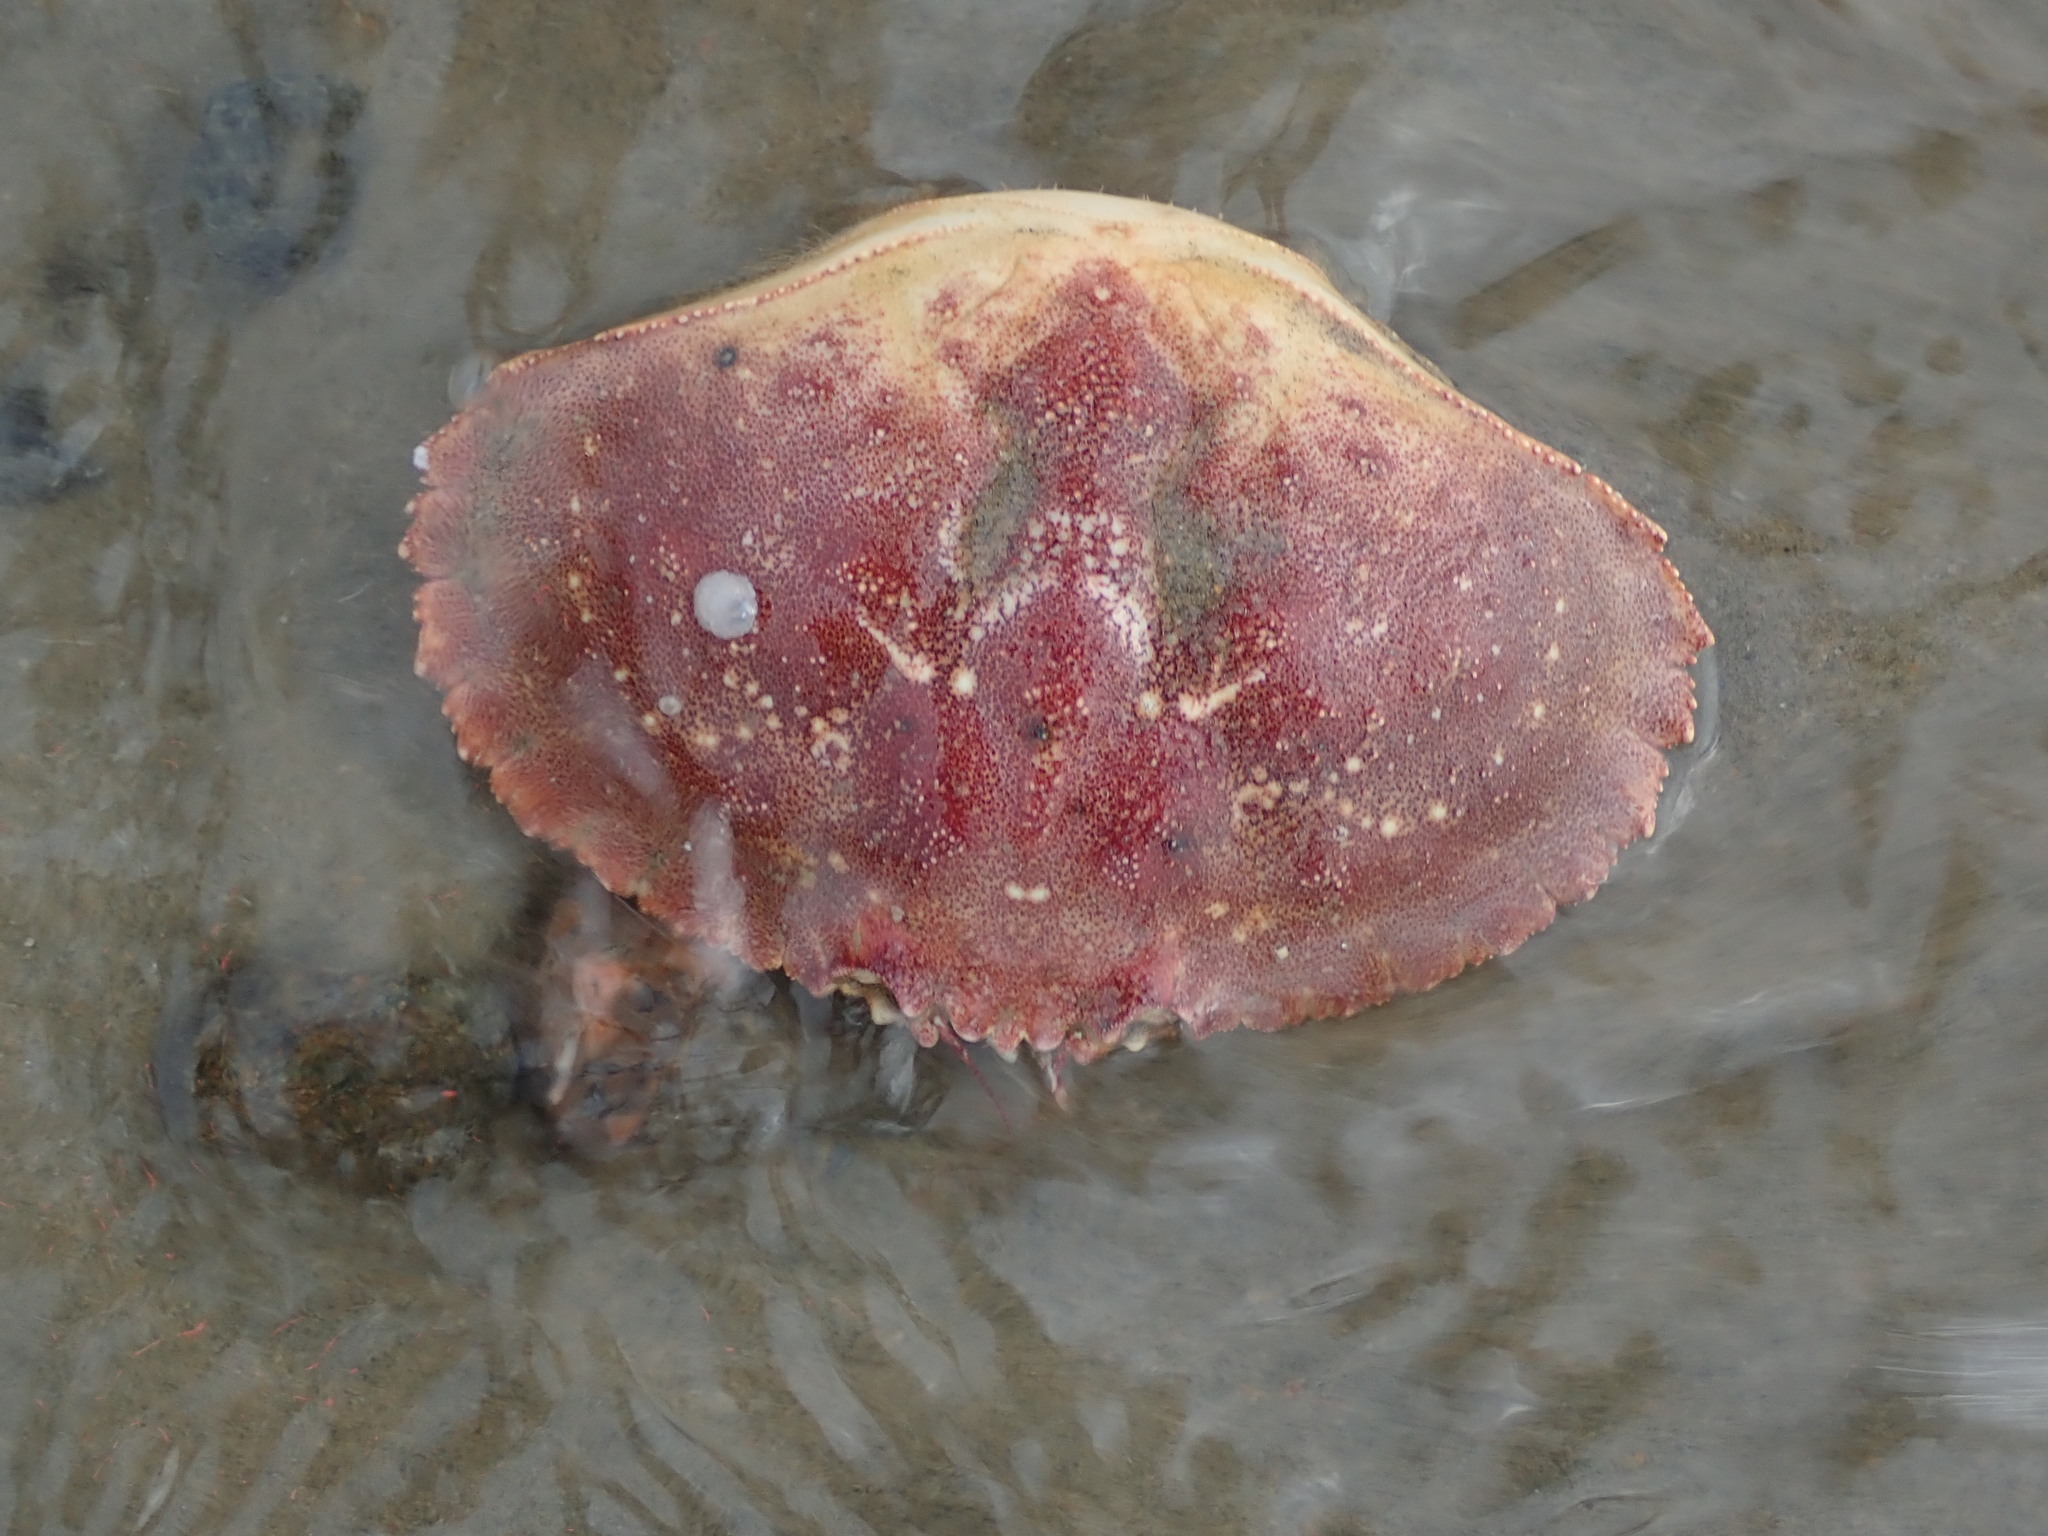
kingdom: Animalia
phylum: Arthropoda
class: Malacostraca
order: Decapoda
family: Cancridae
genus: Cancer
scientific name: Cancer borealis
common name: Jonah crab
